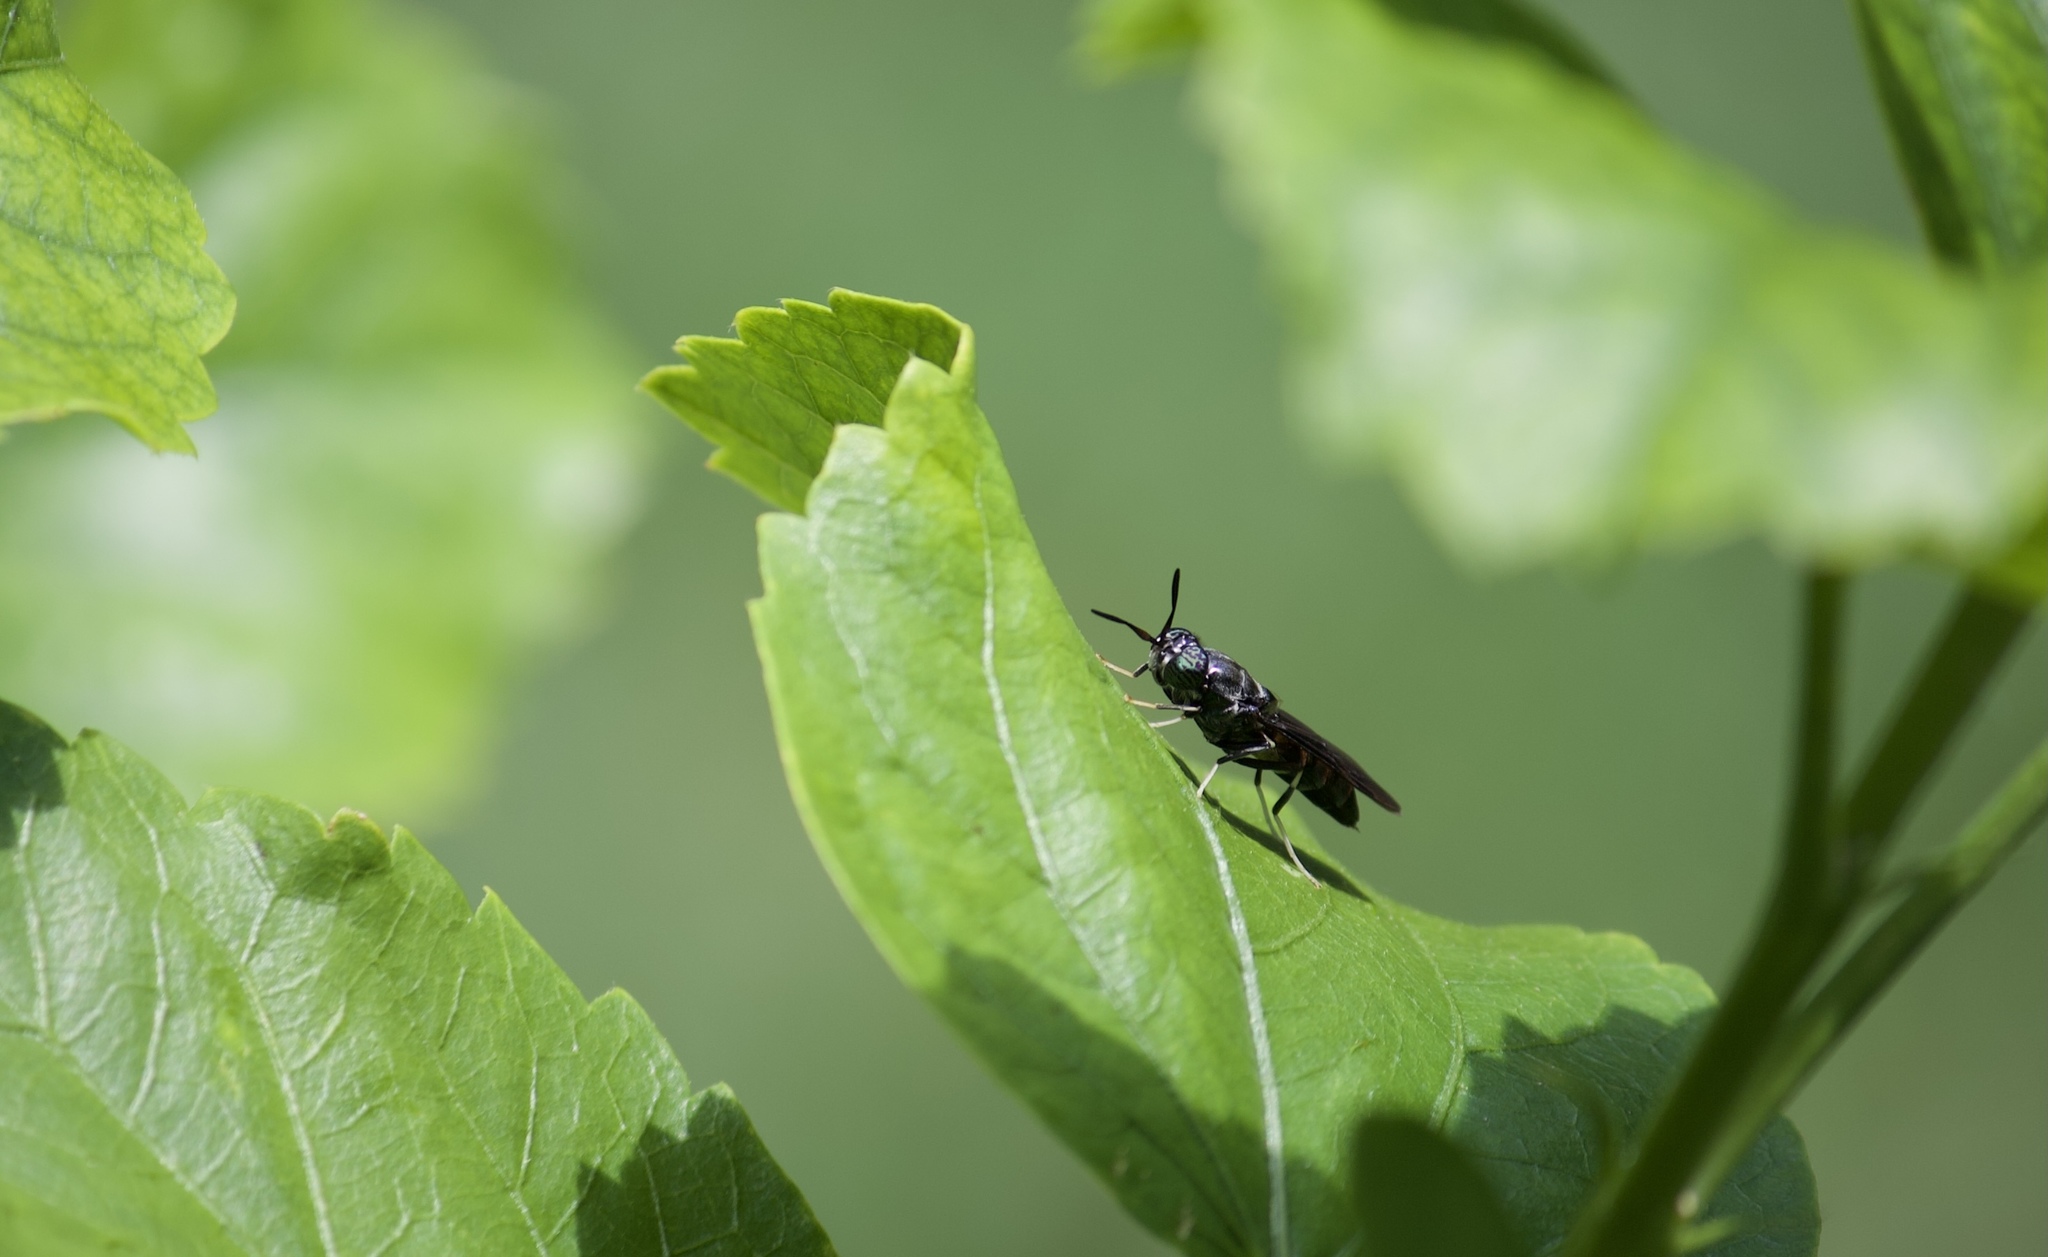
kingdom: Animalia
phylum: Arthropoda
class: Insecta
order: Diptera
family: Stratiomyidae
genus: Hermetia
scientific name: Hermetia illucens
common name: Black soldier fly
